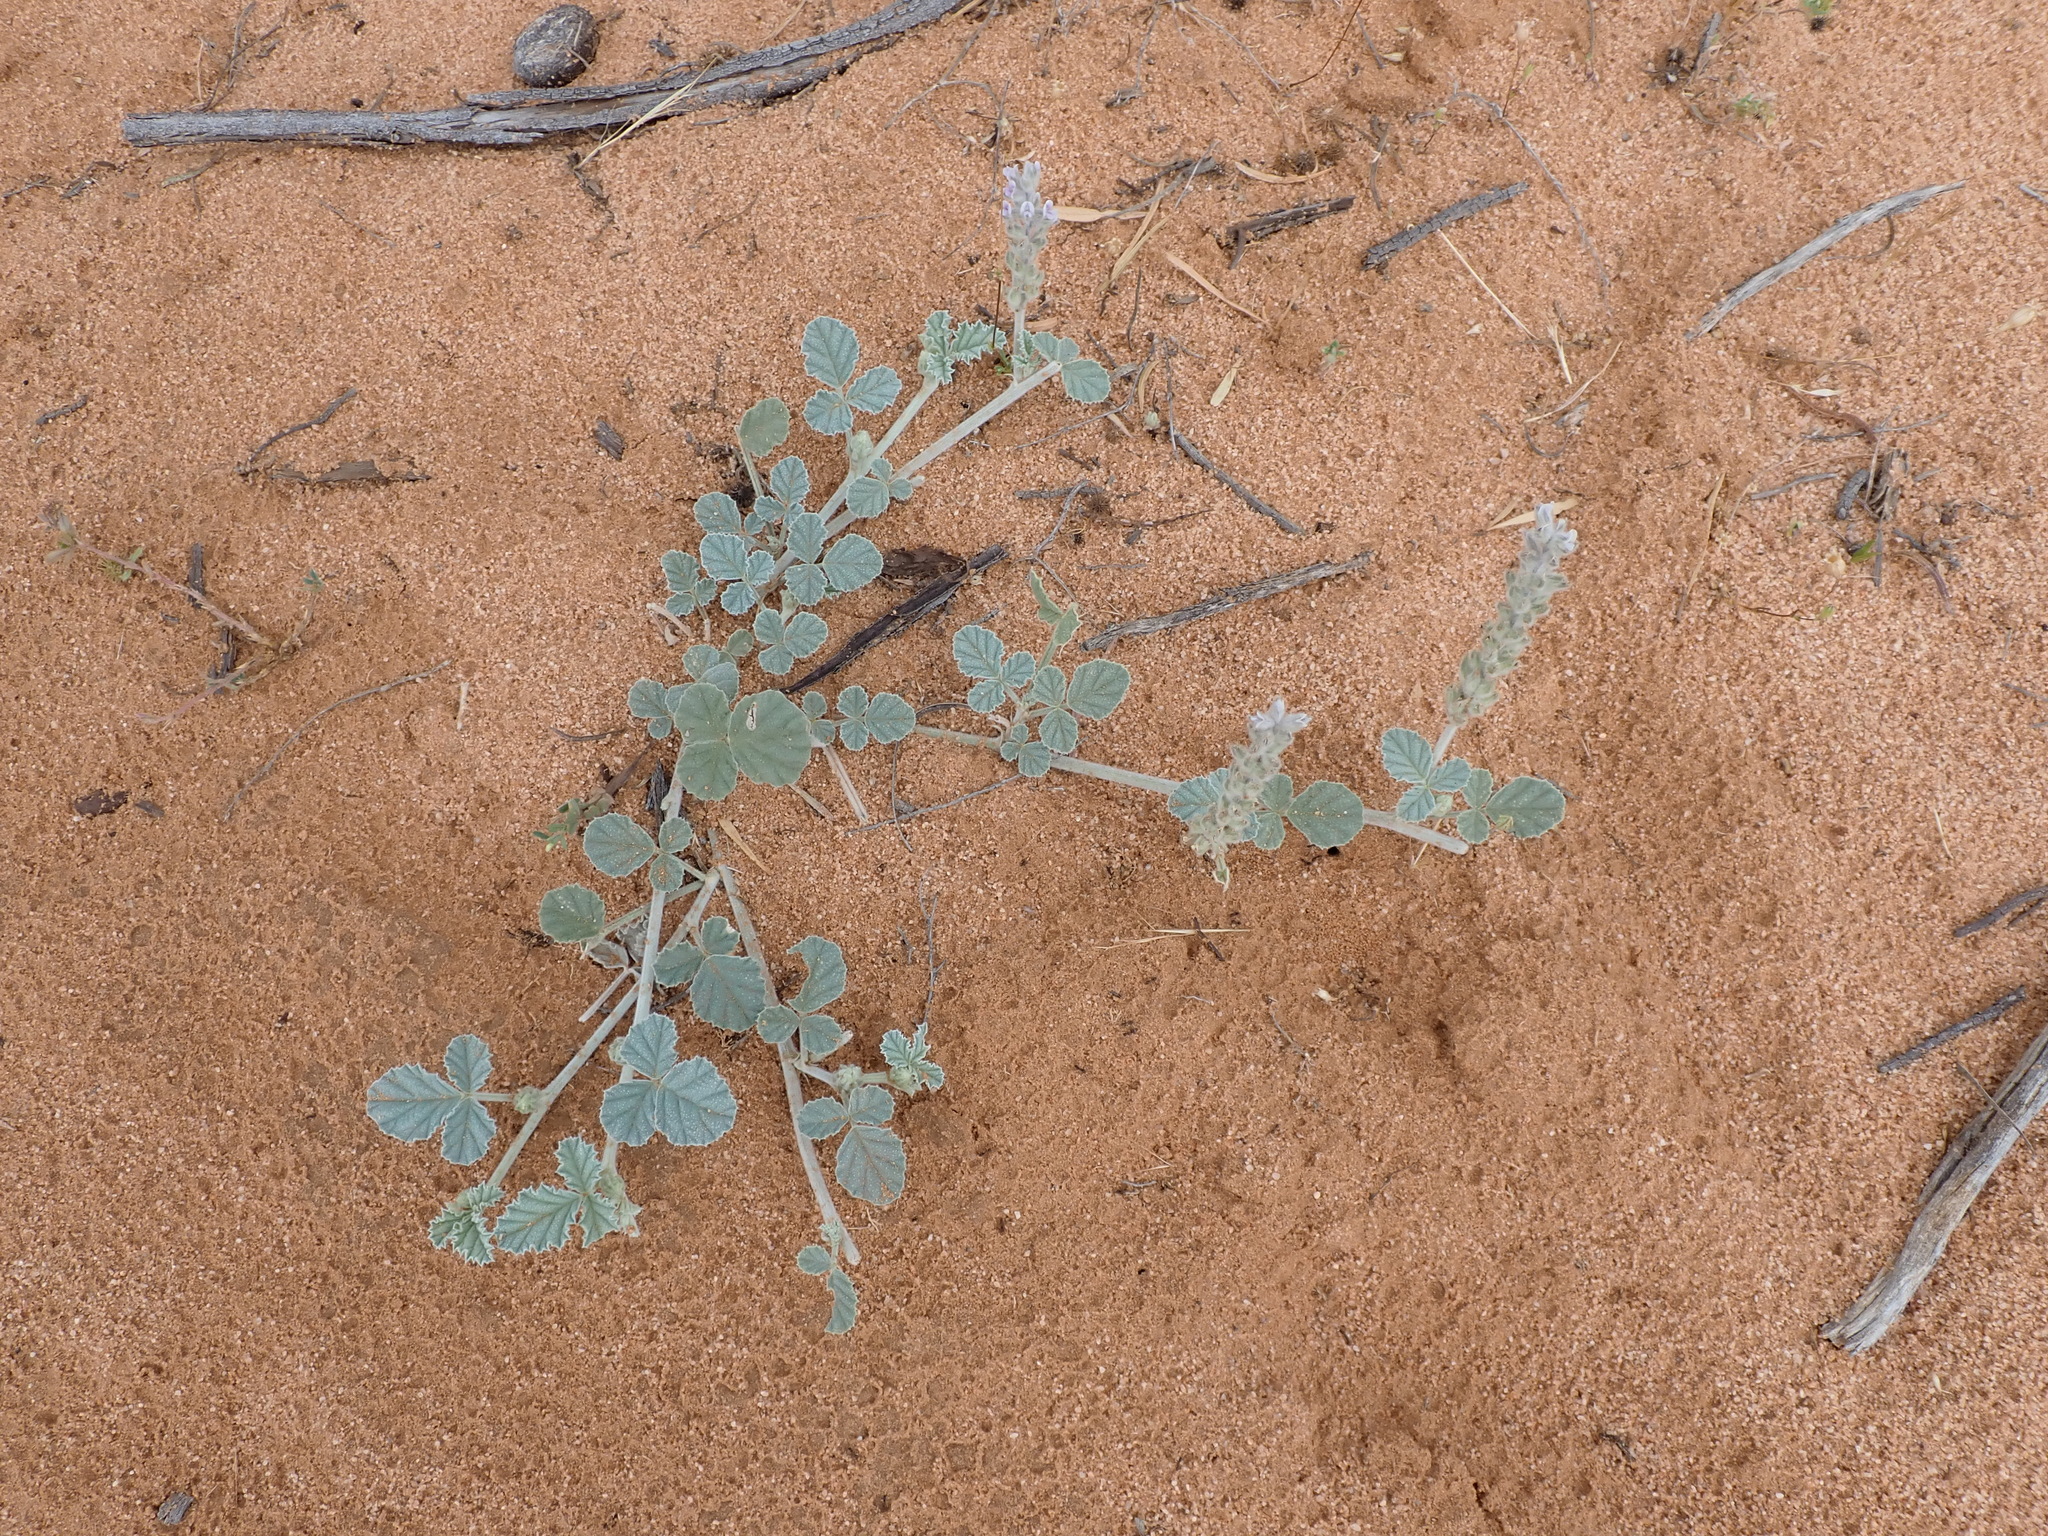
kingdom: Plantae
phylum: Tracheophyta
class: Magnoliopsida
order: Fabales
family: Fabaceae
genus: Cullen
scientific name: Cullen pallidum
